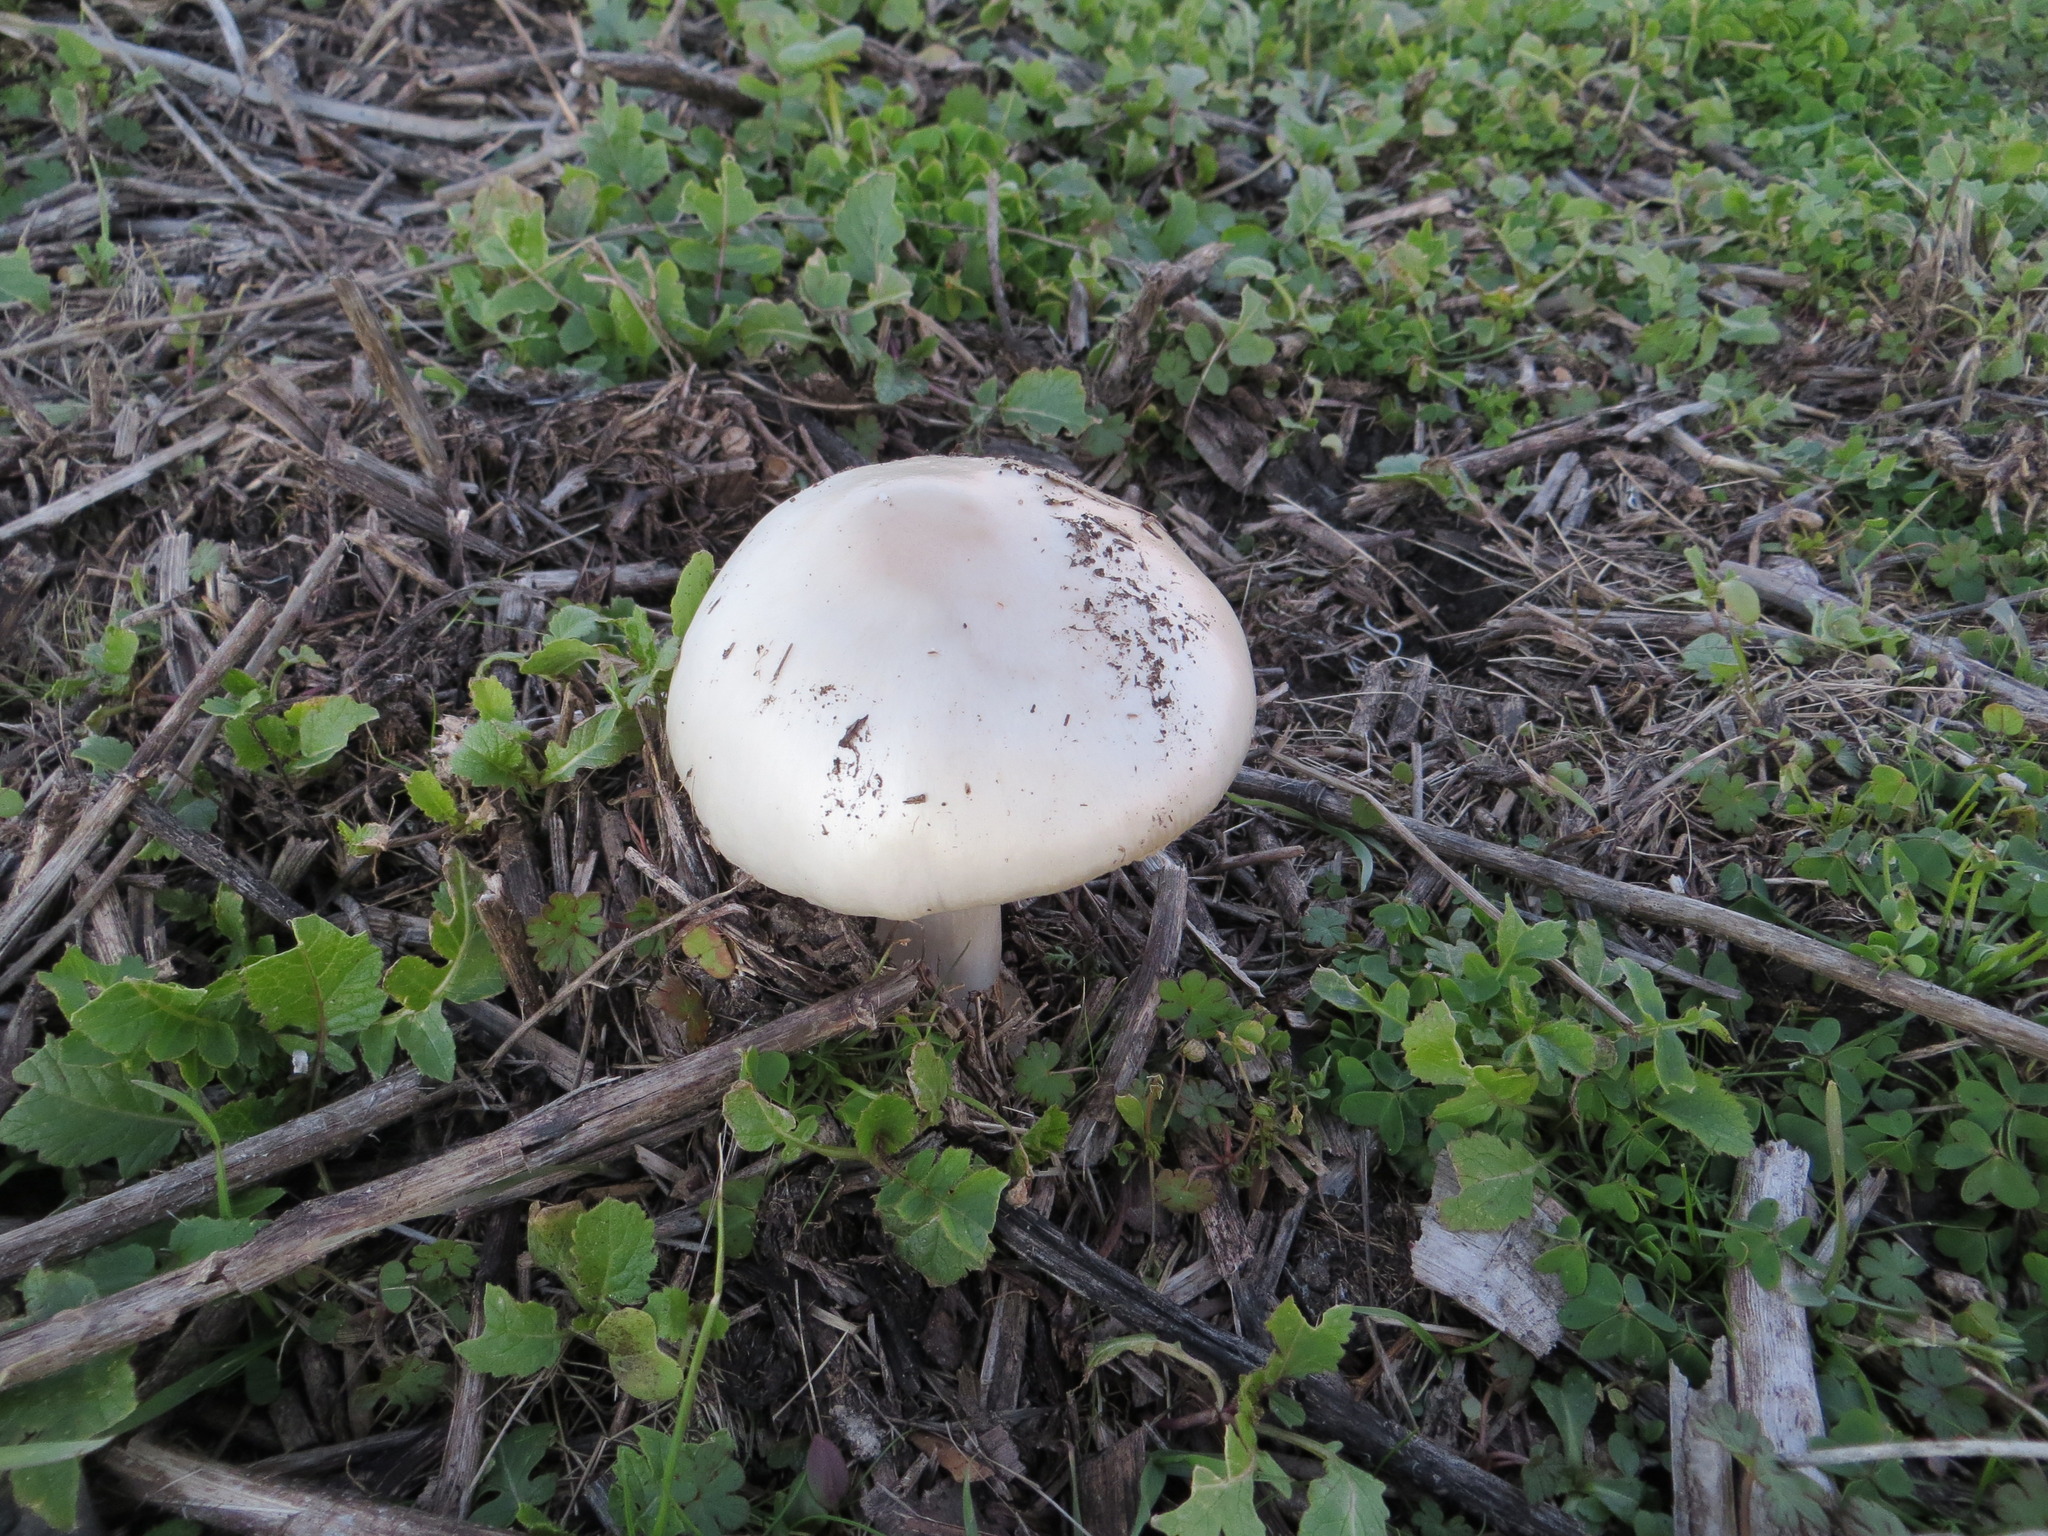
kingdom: Fungi
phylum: Basidiomycota
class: Agaricomycetes
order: Agaricales
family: Pluteaceae
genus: Volvopluteus
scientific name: Volvopluteus gloiocephalus
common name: Stubble rosegill
